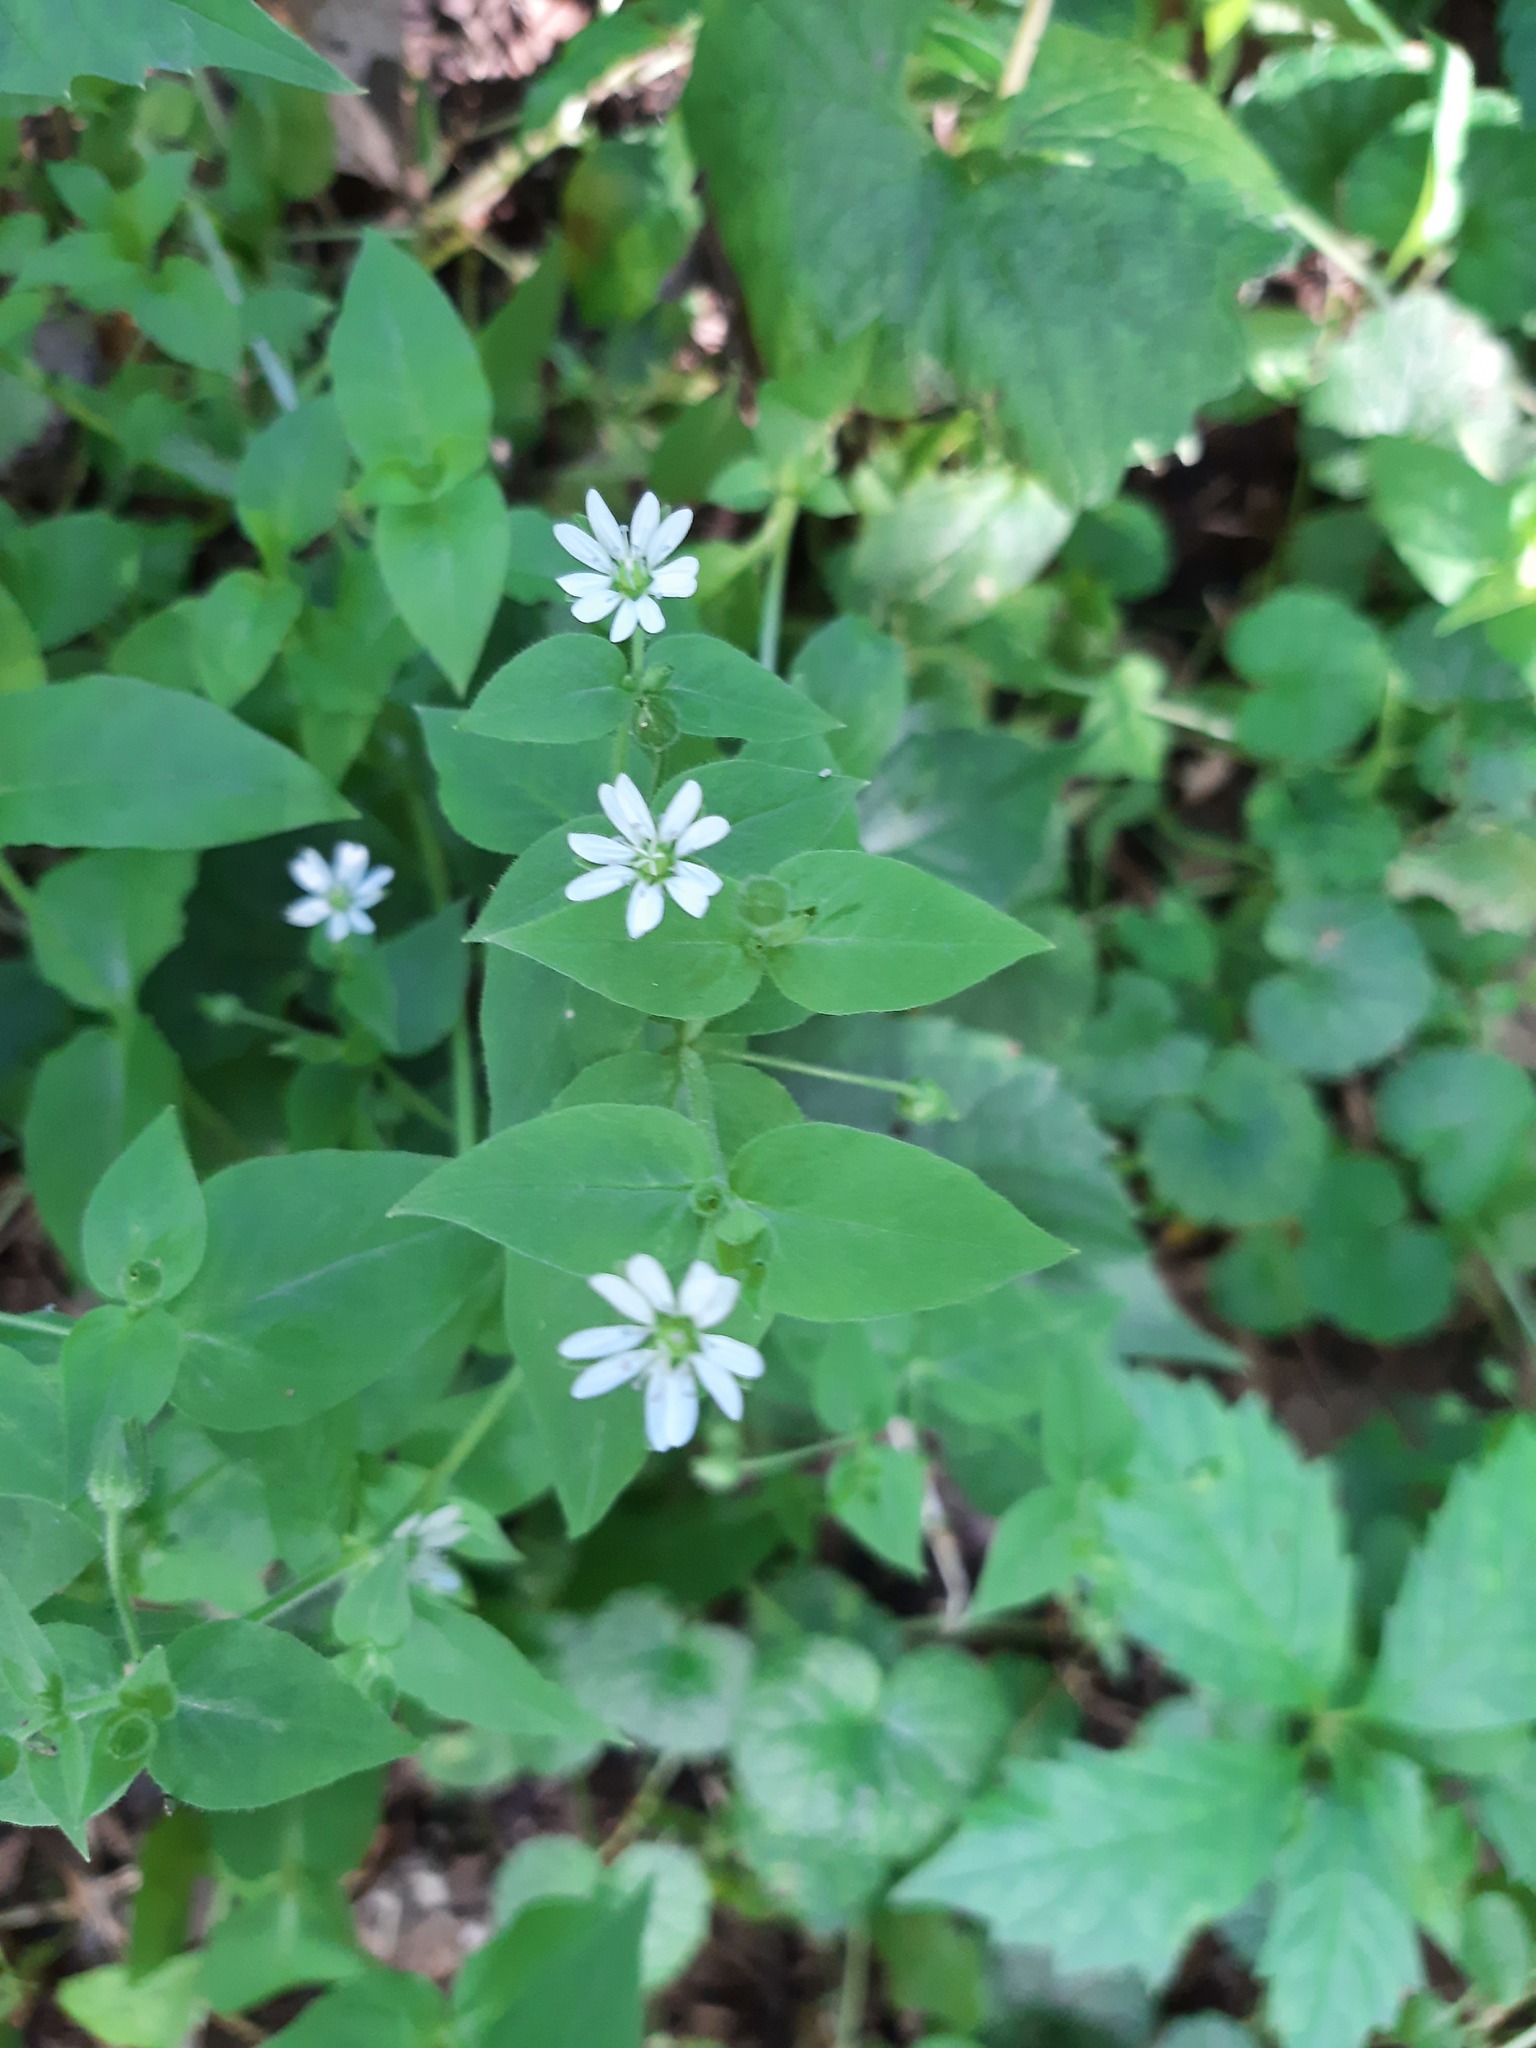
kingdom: Plantae
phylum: Tracheophyta
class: Magnoliopsida
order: Caryophyllales
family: Caryophyllaceae
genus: Stellaria
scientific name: Stellaria aquatica
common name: Water chickweed
